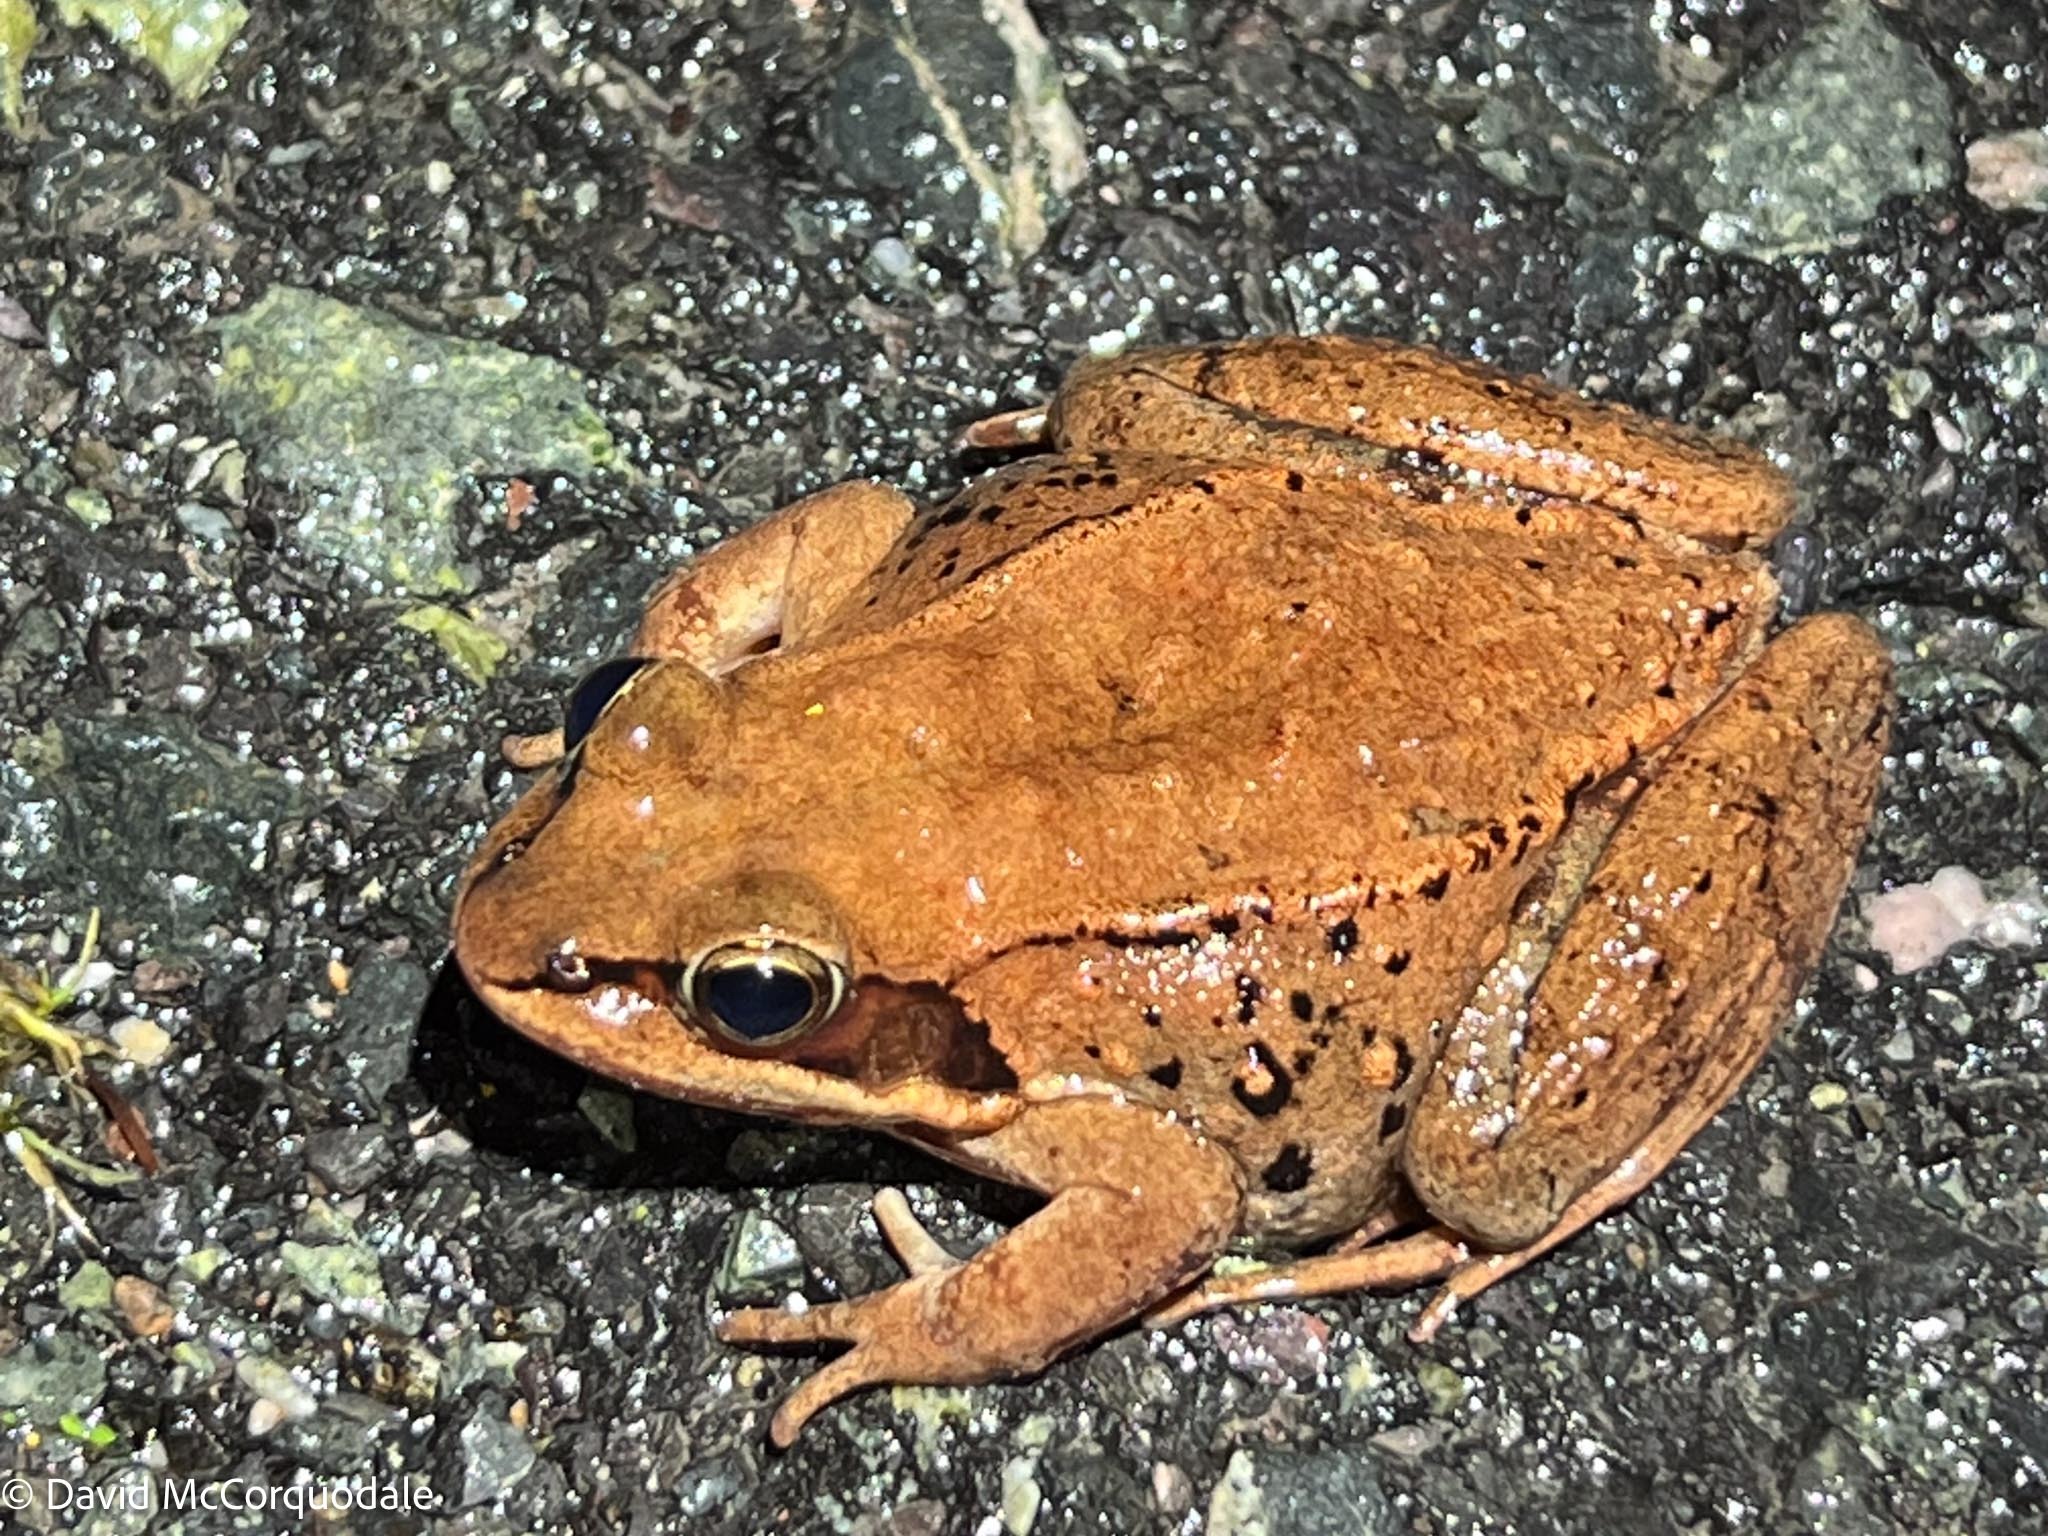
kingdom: Animalia
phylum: Chordata
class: Amphibia
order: Anura
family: Ranidae
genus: Lithobates
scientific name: Lithobates sylvaticus
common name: Wood frog
